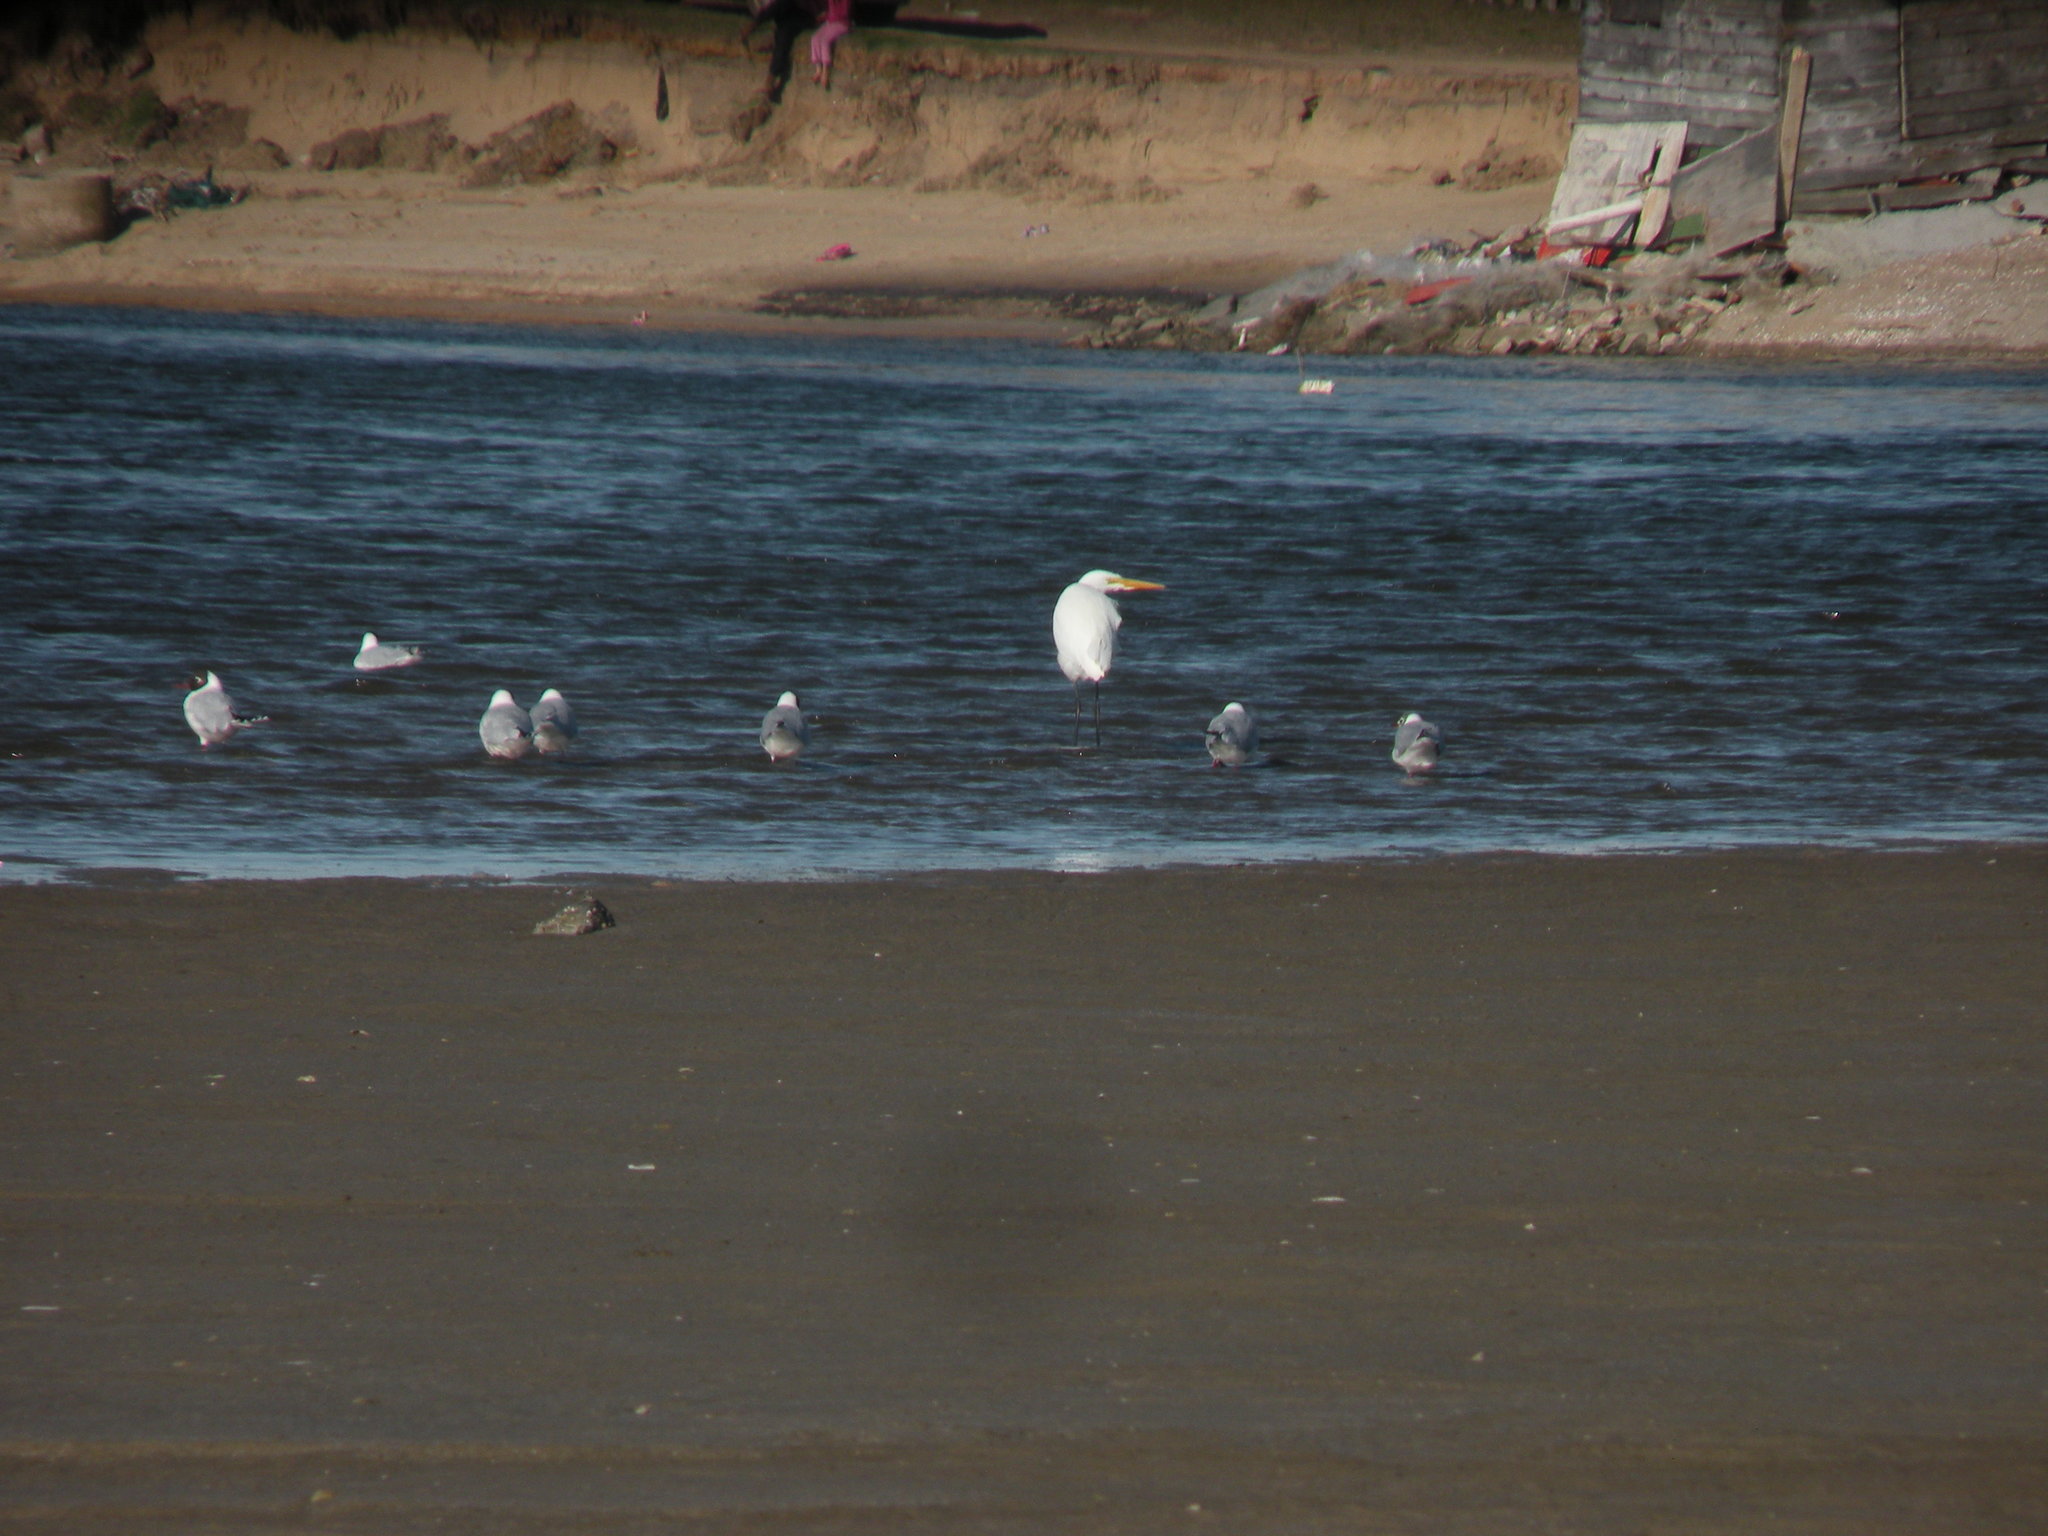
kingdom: Animalia
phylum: Chordata
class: Aves
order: Pelecaniformes
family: Ardeidae
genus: Ardea
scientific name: Ardea alba
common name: Great egret
